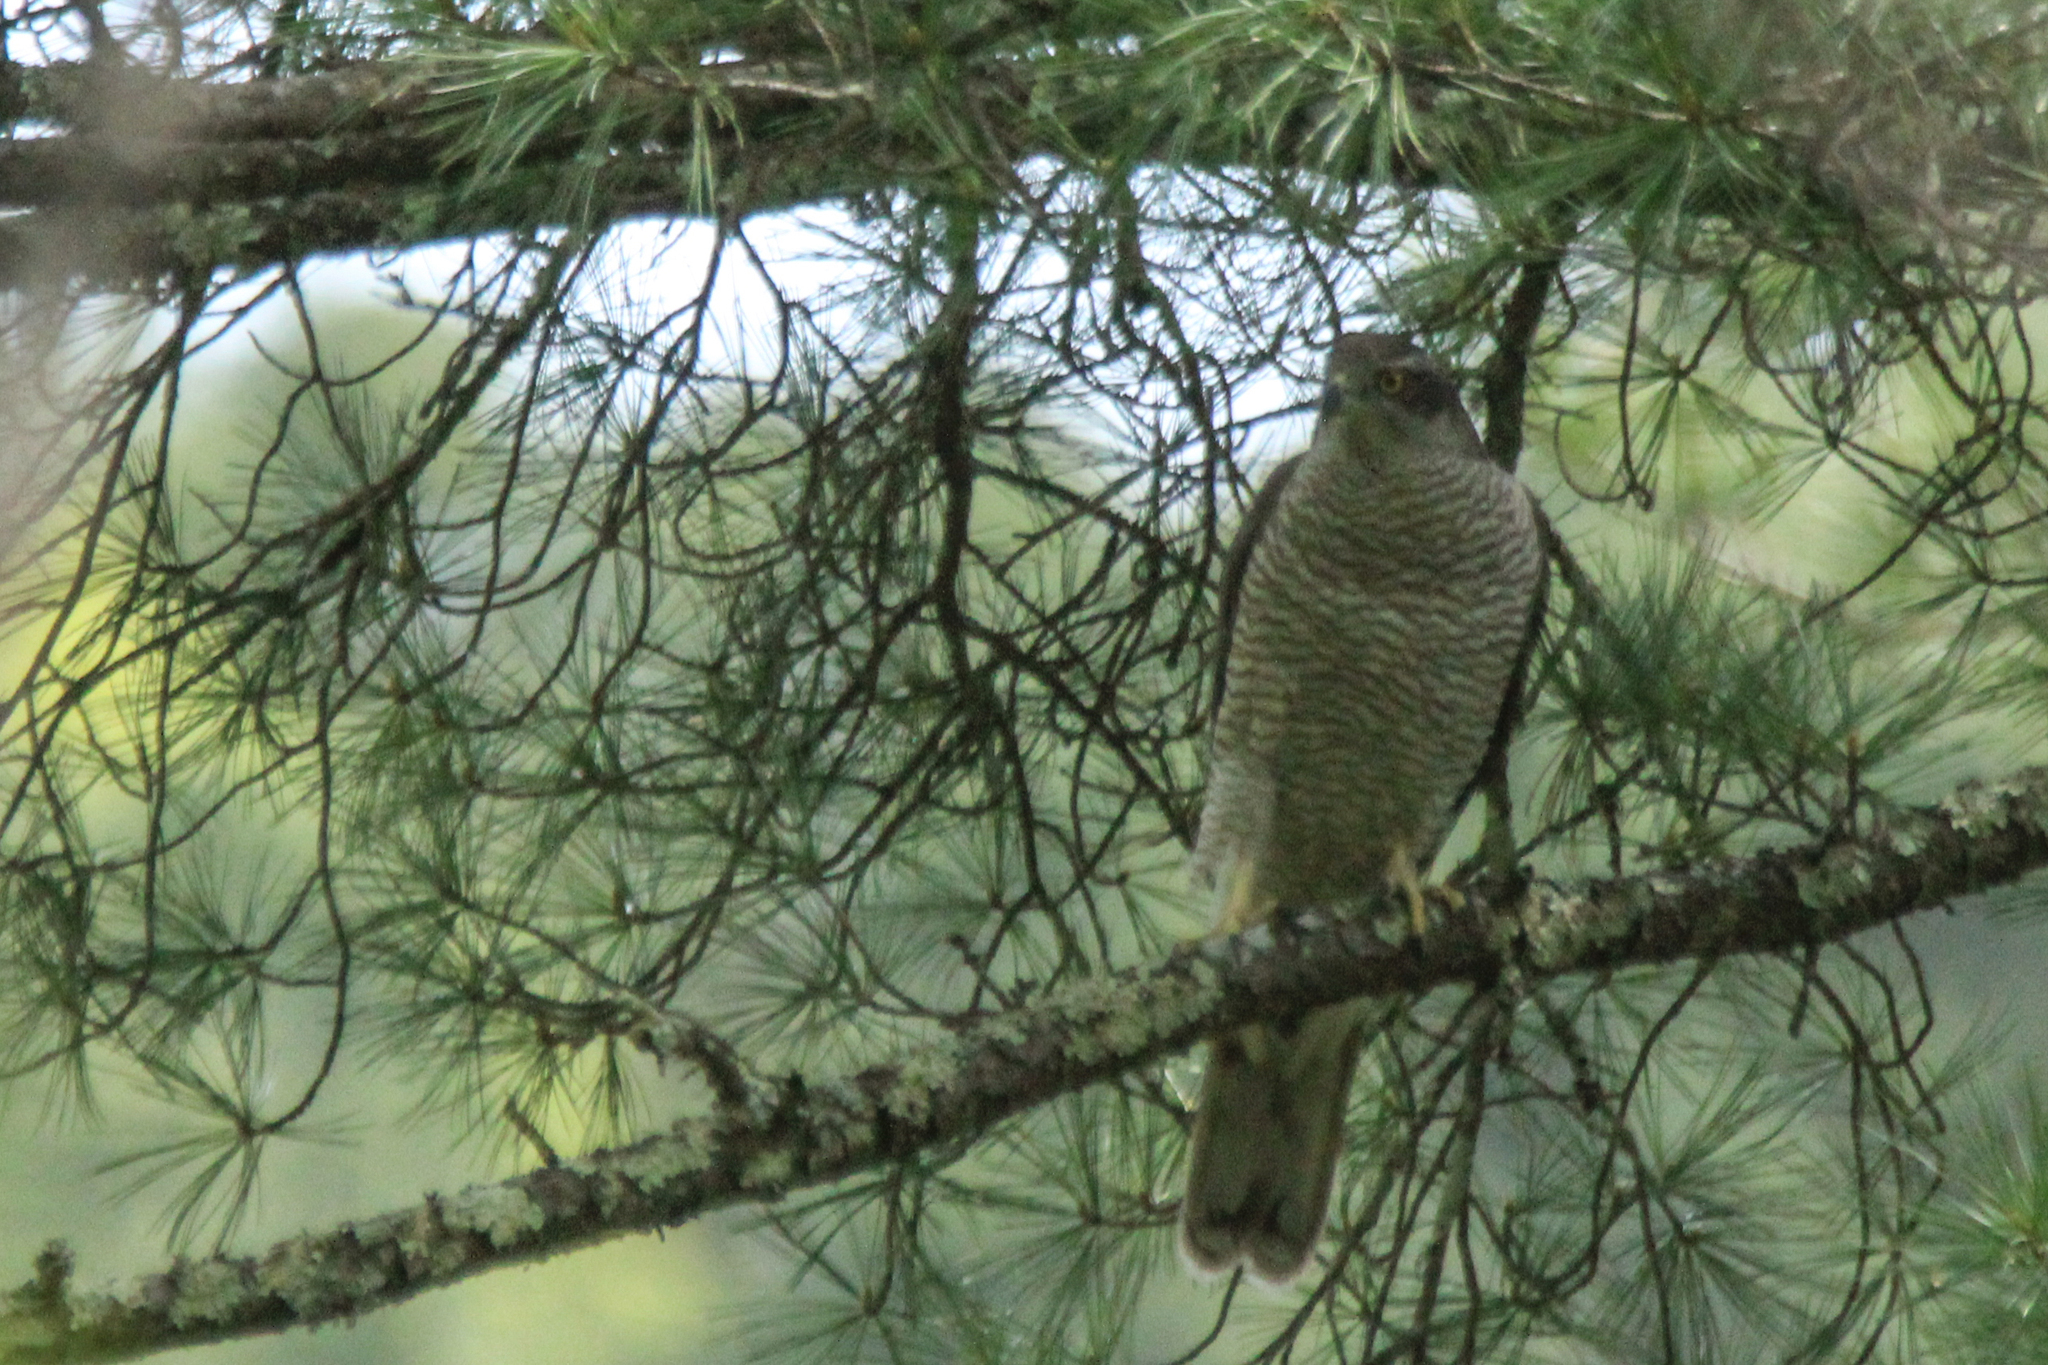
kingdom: Animalia
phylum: Chordata
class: Aves
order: Accipitriformes
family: Accipitridae
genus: Accipiter
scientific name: Accipiter gentilis
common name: Northern goshawk
